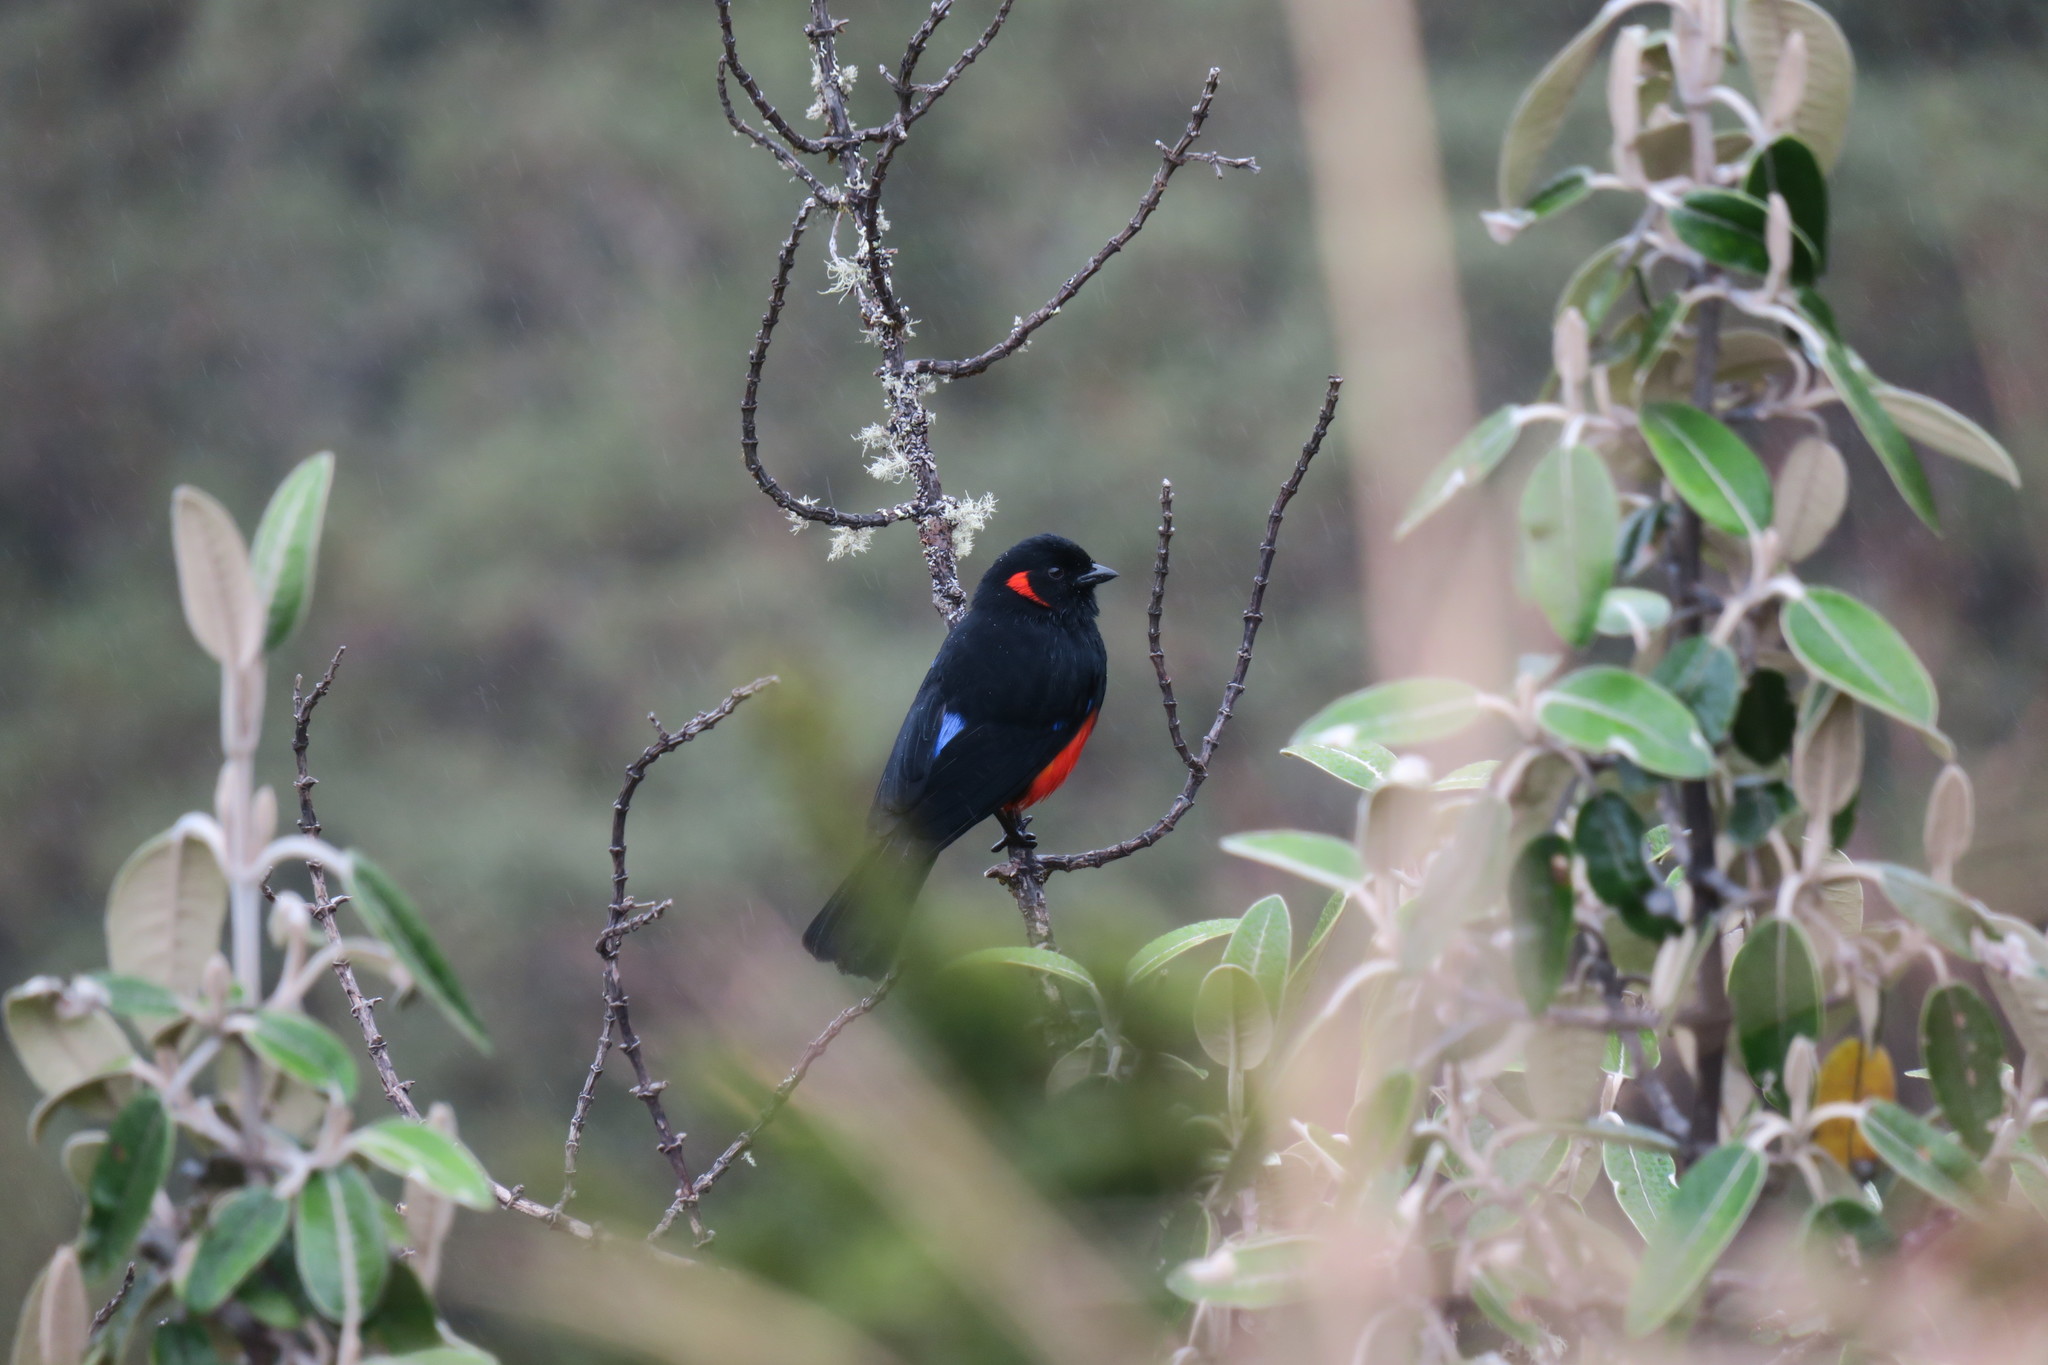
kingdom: Animalia
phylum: Chordata
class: Aves
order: Passeriformes
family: Thraupidae
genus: Anisognathus
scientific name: Anisognathus igniventris
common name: Scarlet-bellied mountain tanager
